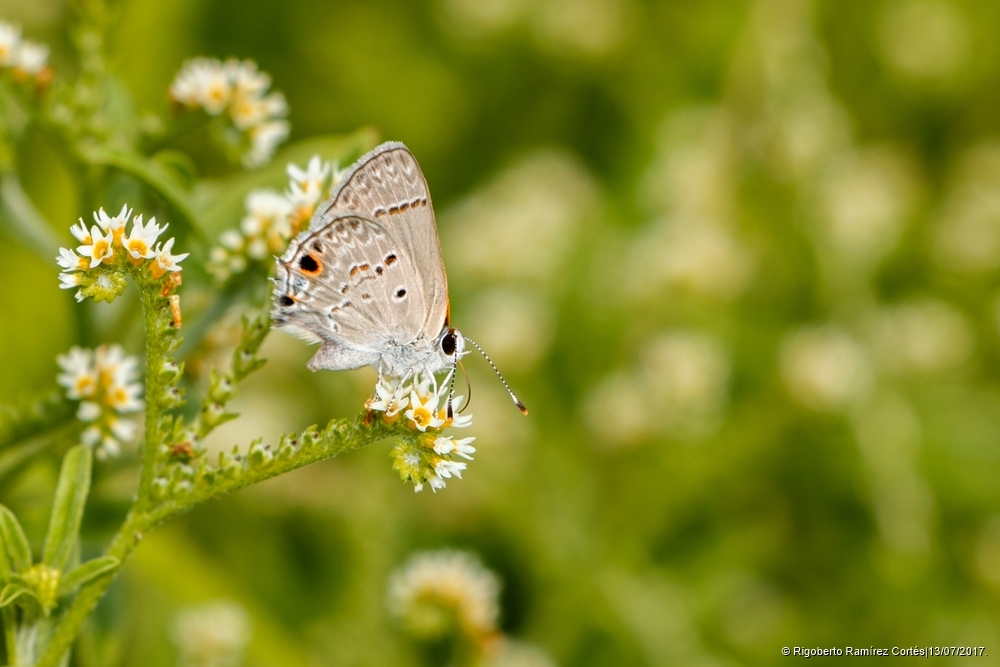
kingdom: Animalia
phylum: Arthropoda
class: Insecta
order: Lepidoptera
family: Lycaenidae
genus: Callicista
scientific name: Callicista columella
